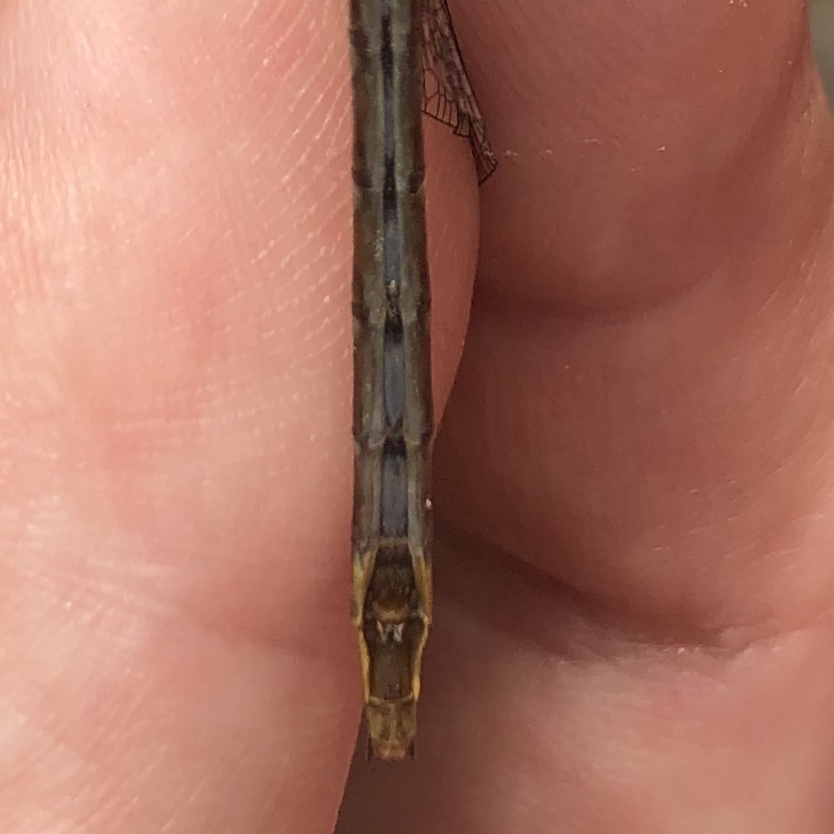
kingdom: Animalia
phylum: Arthropoda
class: Insecta
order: Odonata
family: Gomphidae
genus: Phanogomphus
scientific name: Phanogomphus exilis
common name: Lancet clubtail
